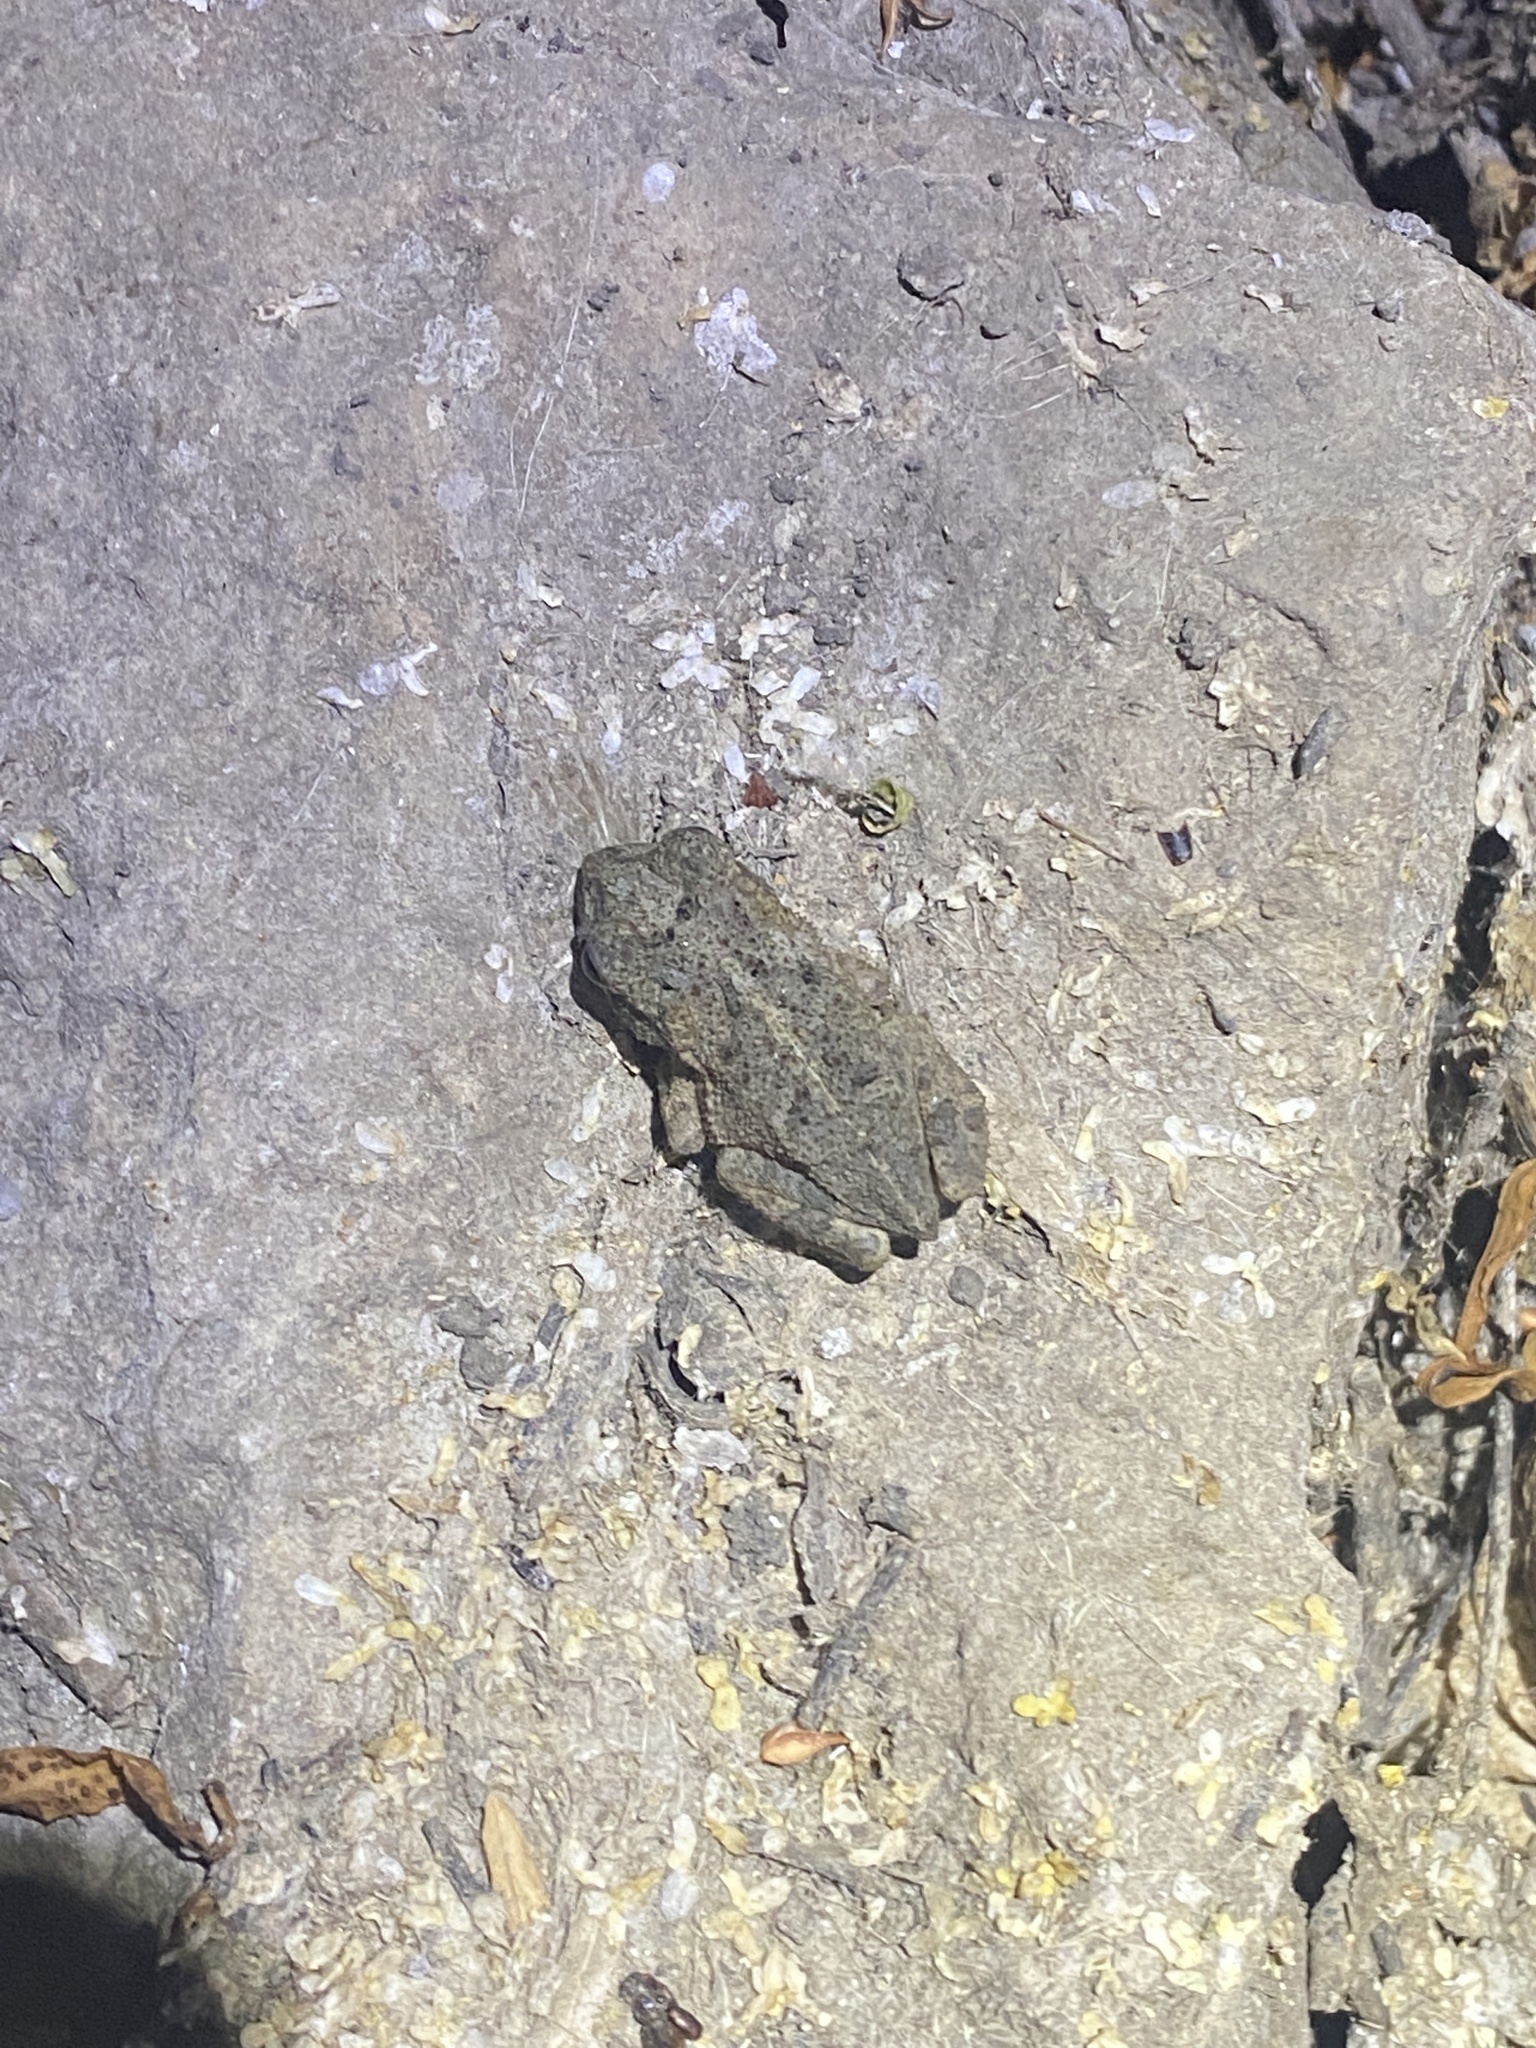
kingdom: Animalia
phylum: Chordata
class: Amphibia
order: Anura
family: Bufonidae
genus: Incilius
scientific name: Incilius nebulifer
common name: Gulf coast toad
